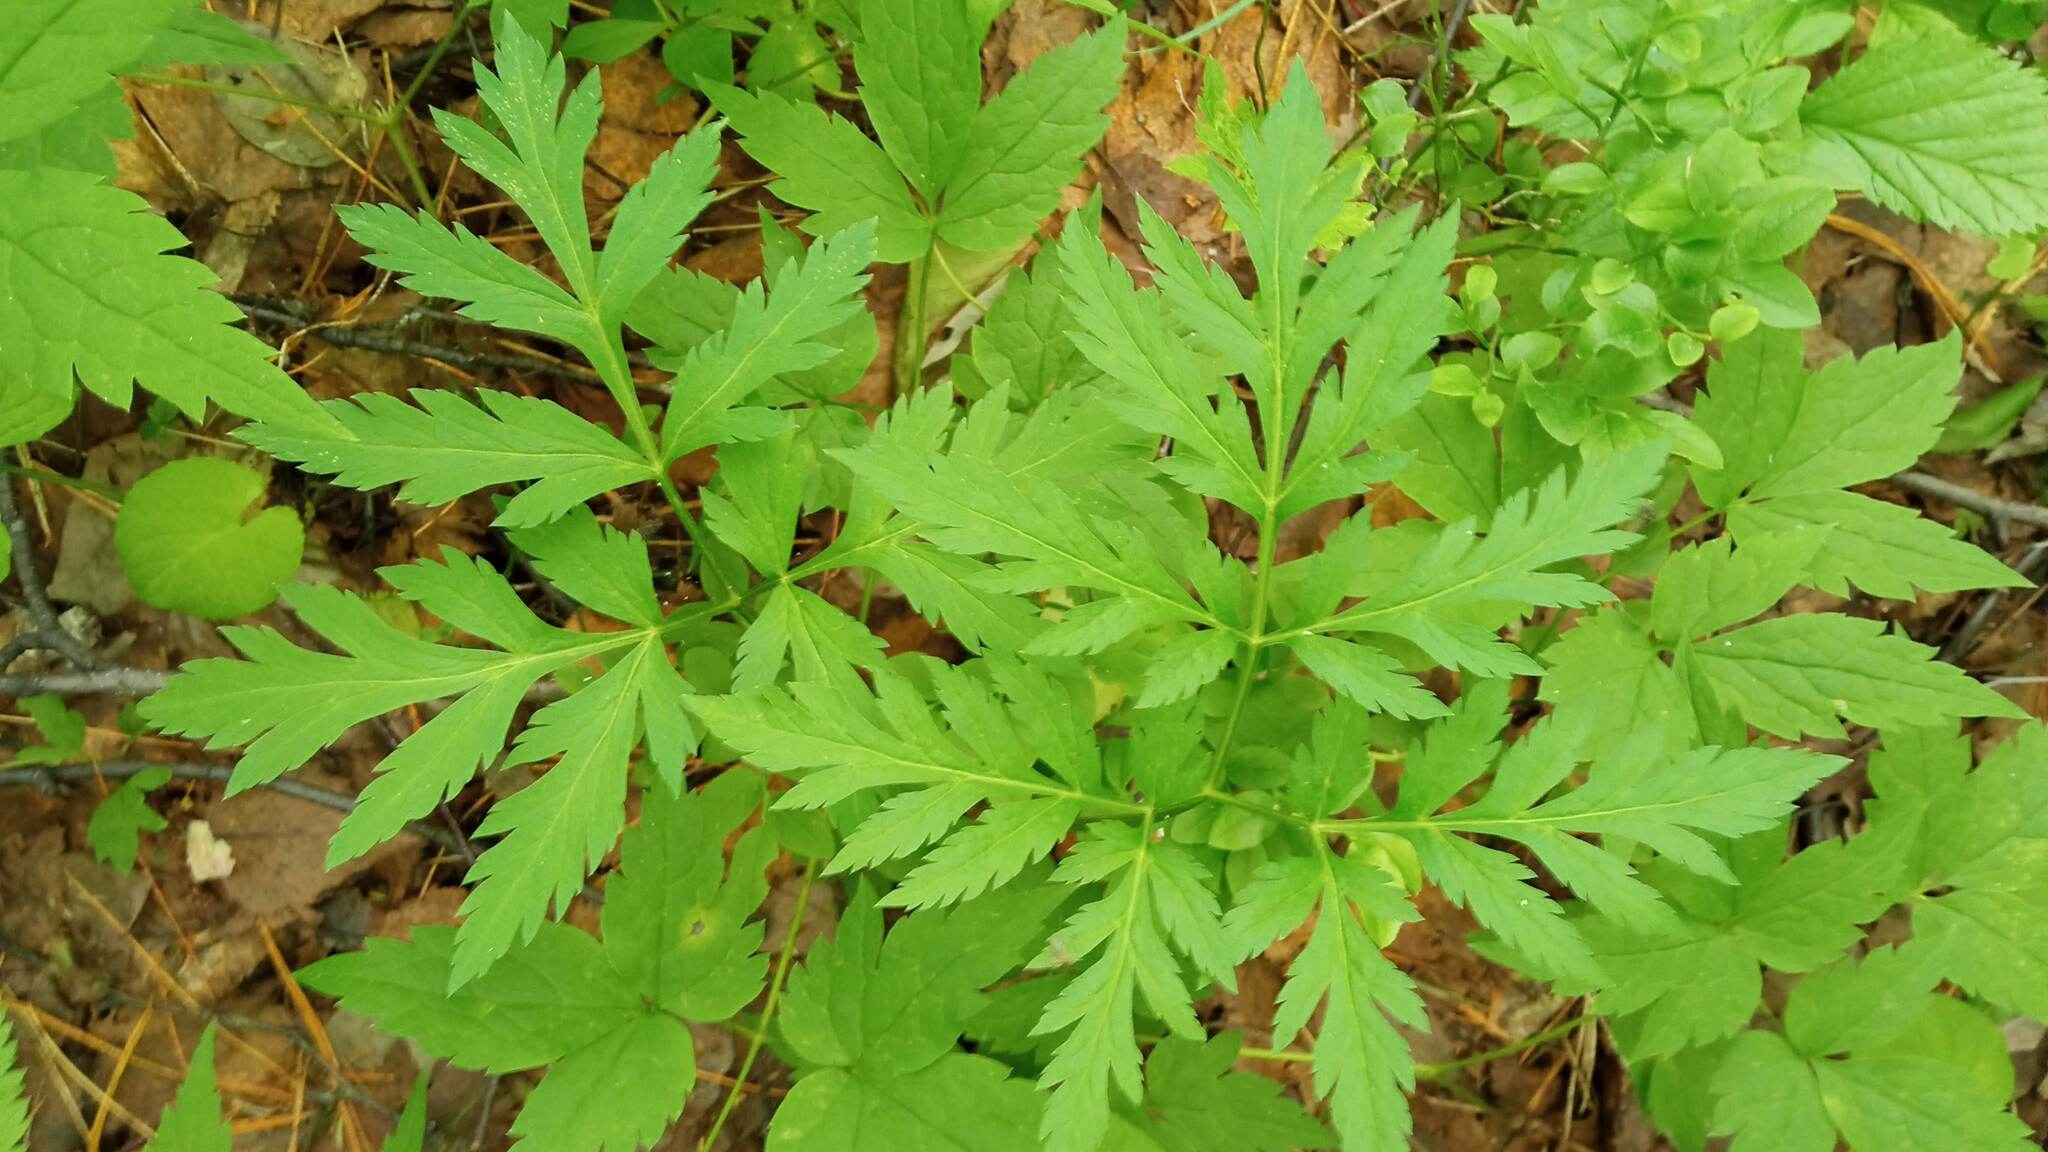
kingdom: Plantae
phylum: Tracheophyta
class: Magnoliopsida
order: Apiales
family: Apiaceae
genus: Pleurospermum
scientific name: Pleurospermum uralense
